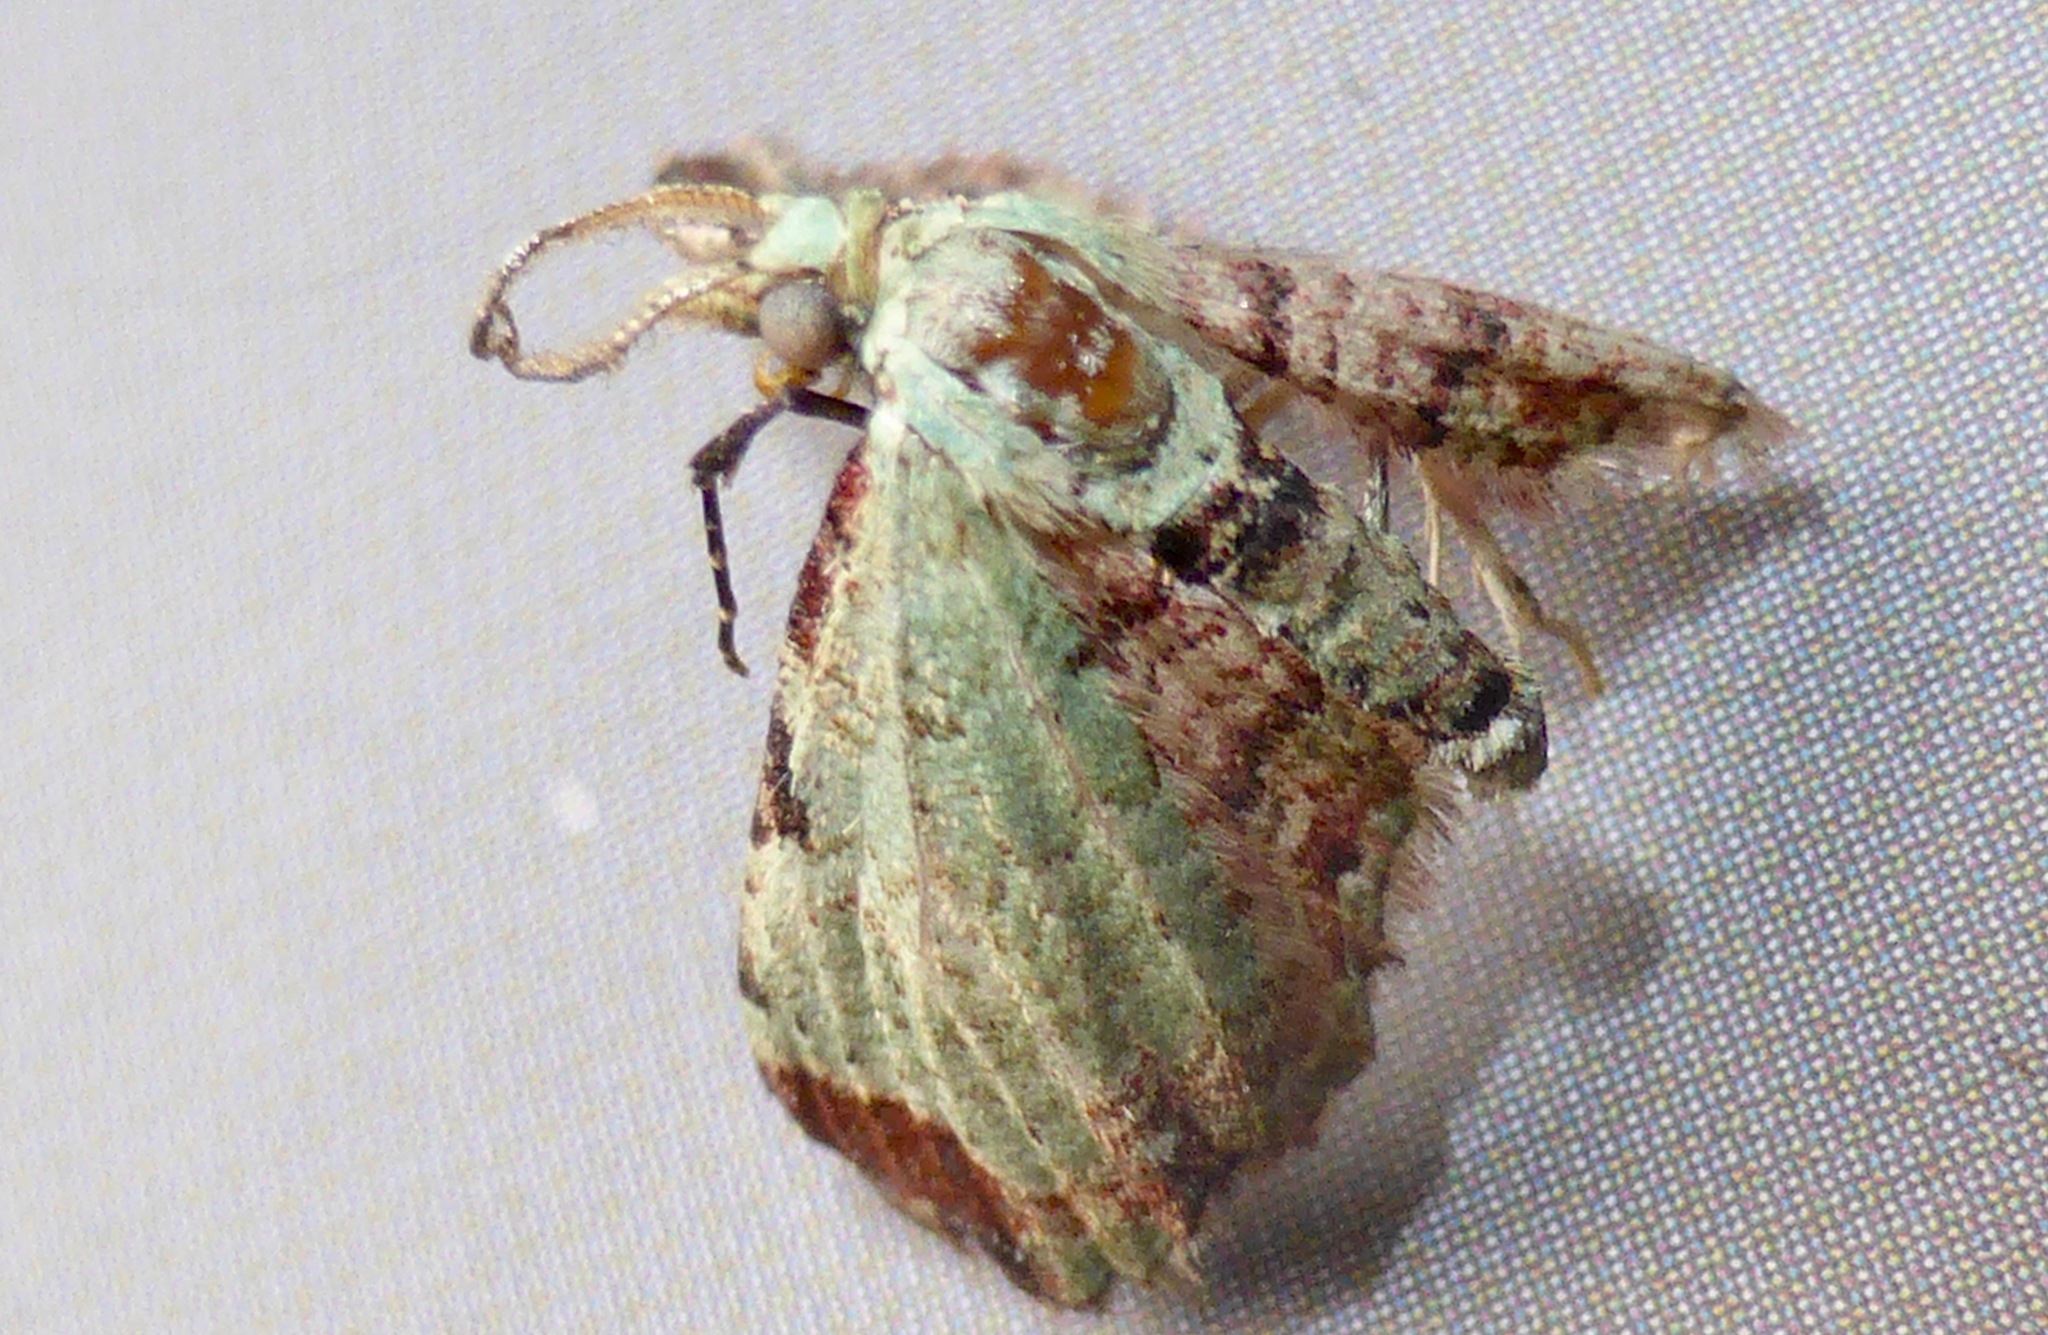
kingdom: Animalia
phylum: Arthropoda
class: Insecta
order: Lepidoptera
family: Geometridae
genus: Pasiphila
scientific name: Pasiphila magnimaculata
